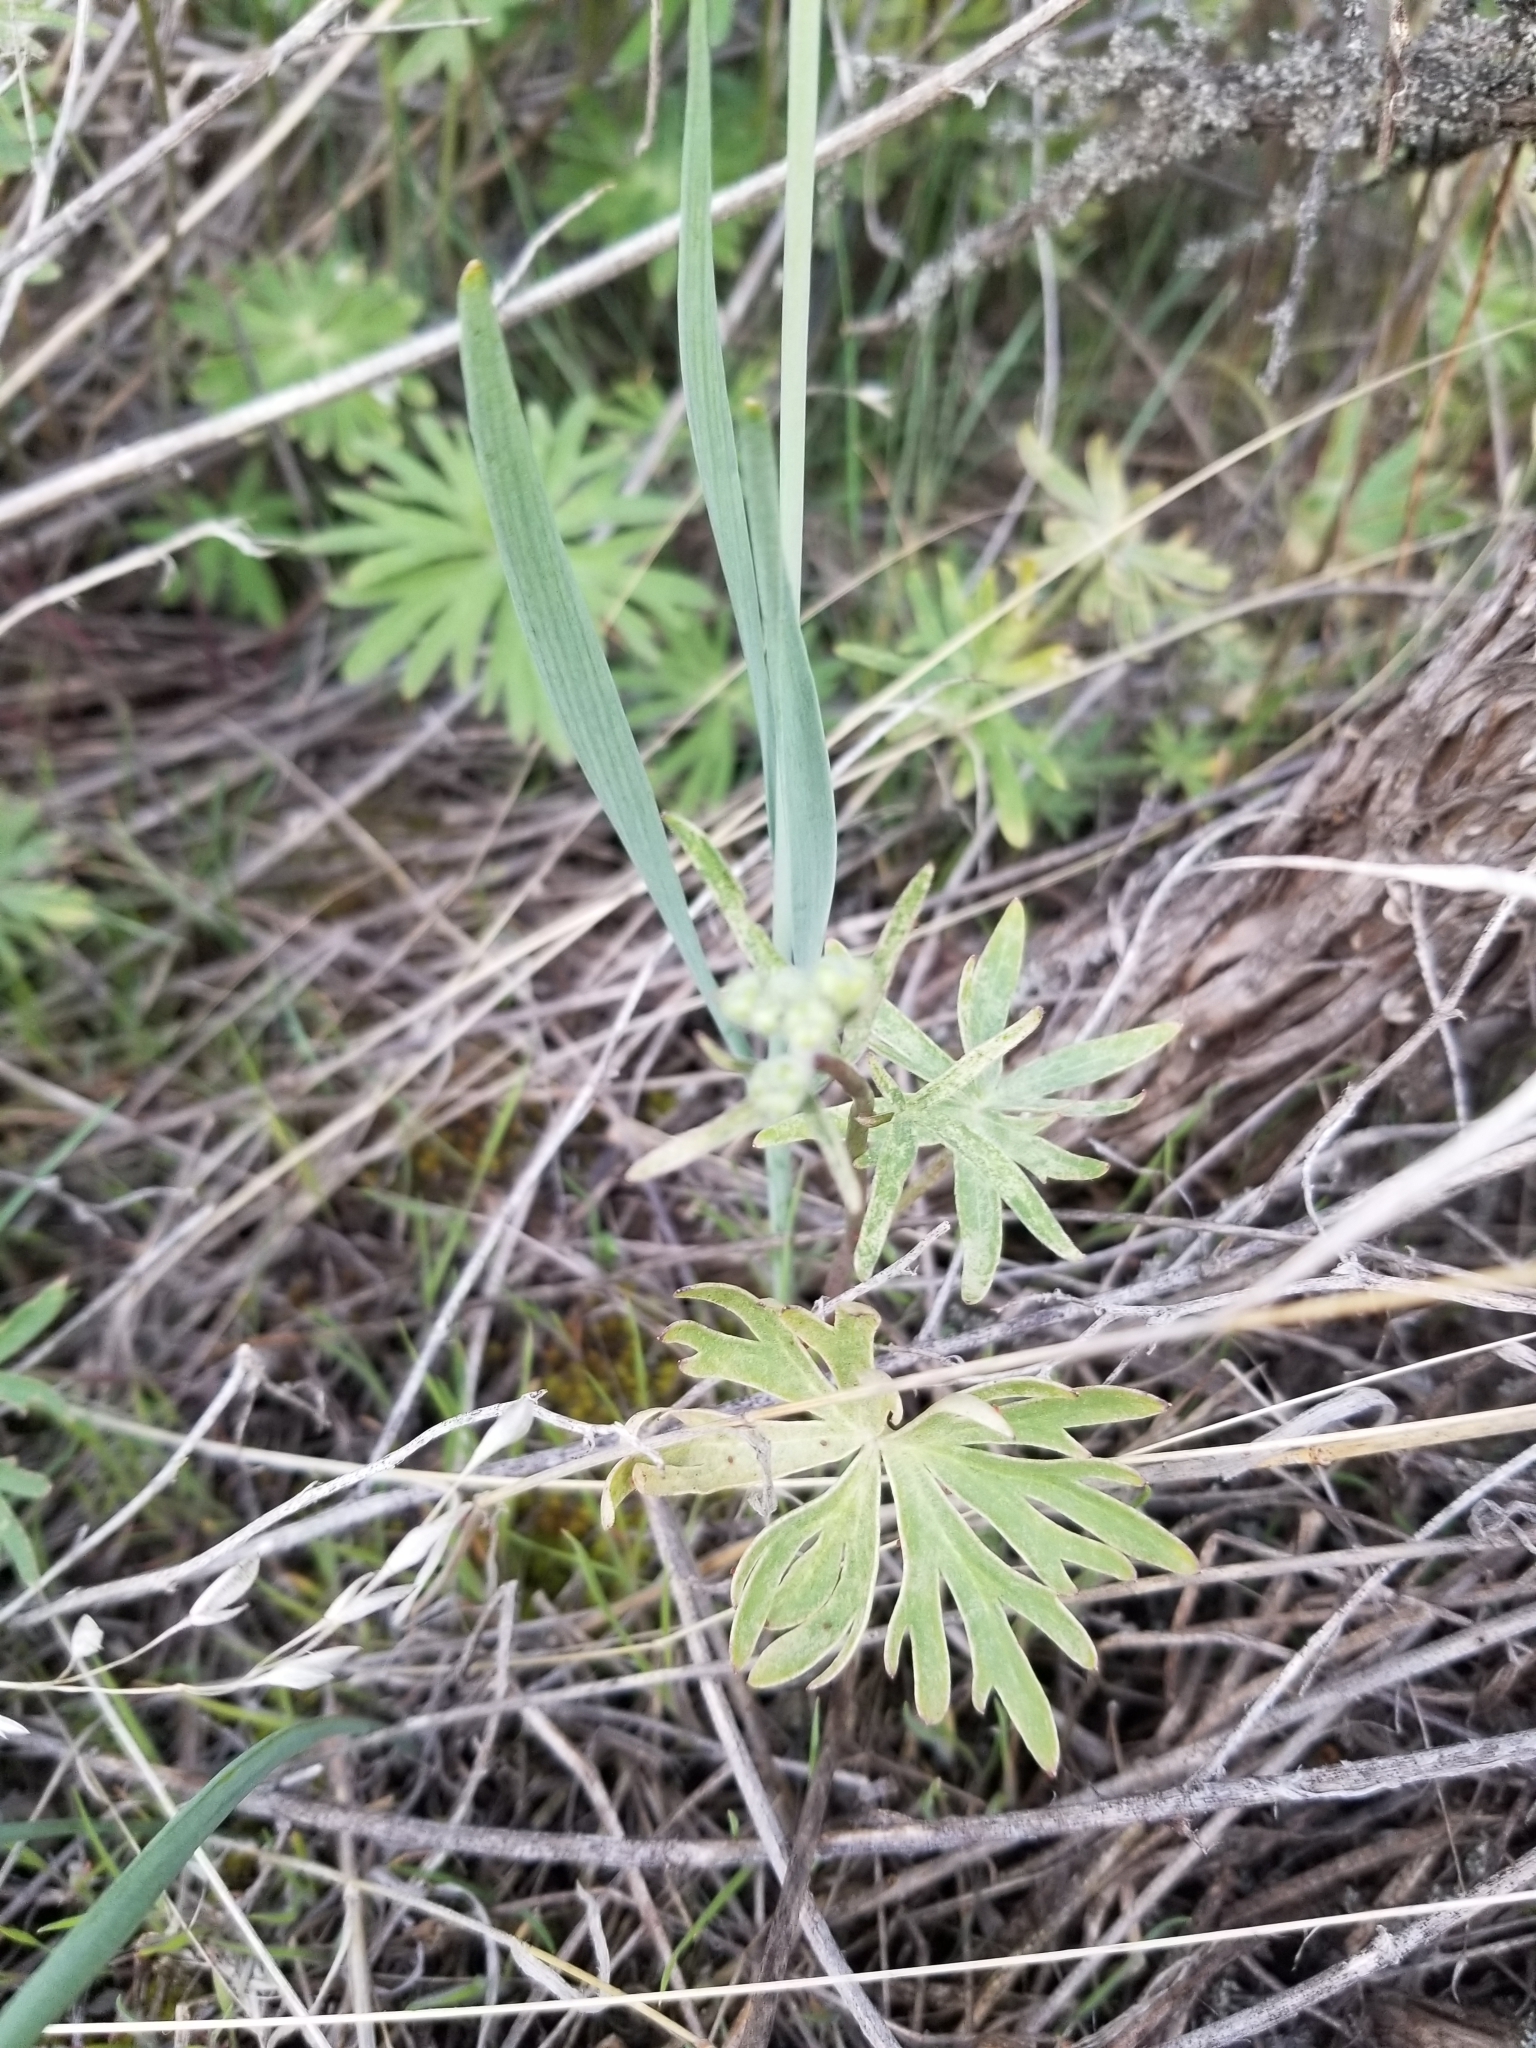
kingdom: Plantae
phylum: Tracheophyta
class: Magnoliopsida
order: Ranunculales
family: Ranunculaceae
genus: Delphinium
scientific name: Delphinium nuttallianum
